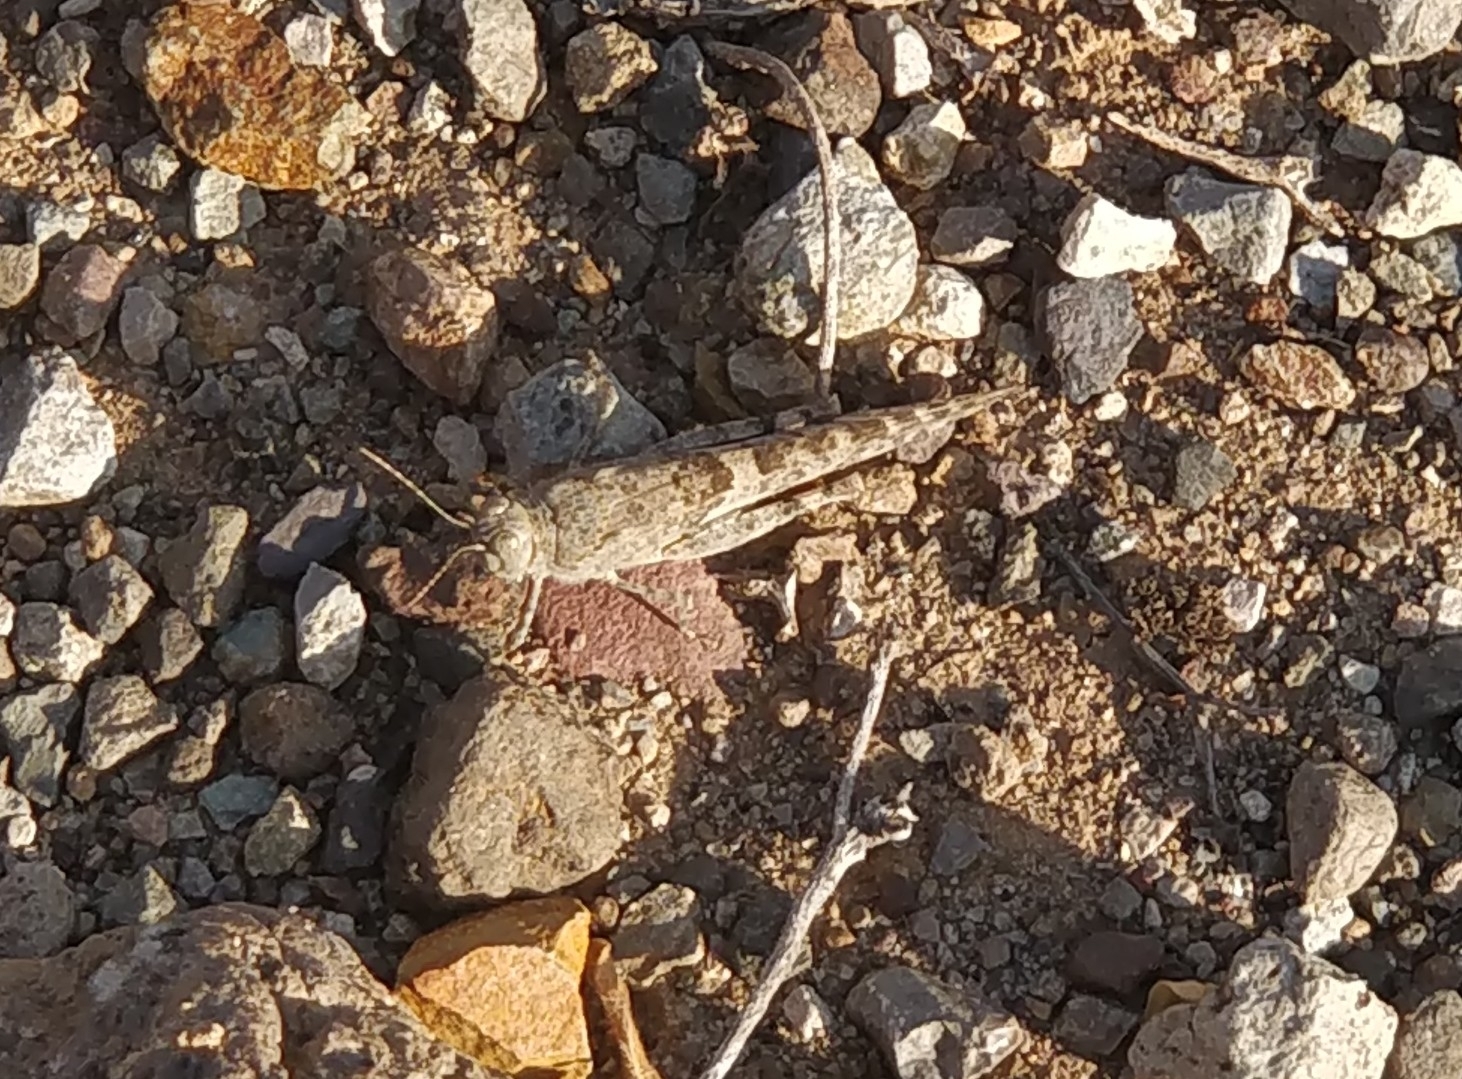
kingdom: Animalia
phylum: Arthropoda
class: Insecta
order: Orthoptera
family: Acrididae
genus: Sphingonotus
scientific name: Sphingonotus rubescens
